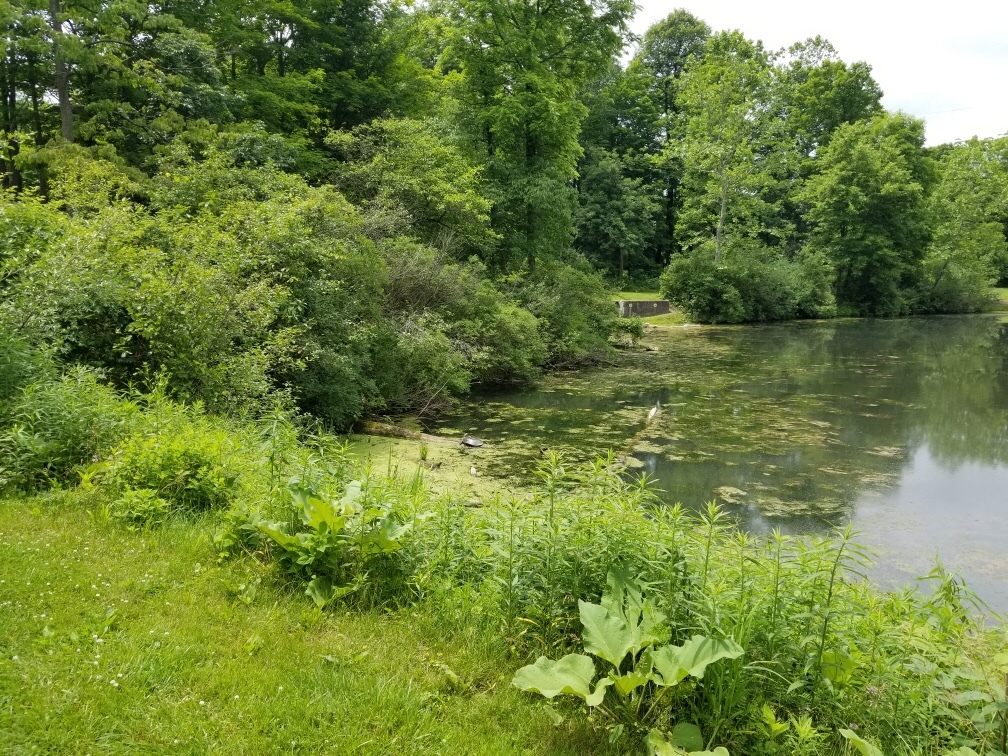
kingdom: Animalia
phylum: Chordata
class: Testudines
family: Trionychidae
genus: Apalone
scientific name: Apalone spinifera
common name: Spiny softshell turtle
